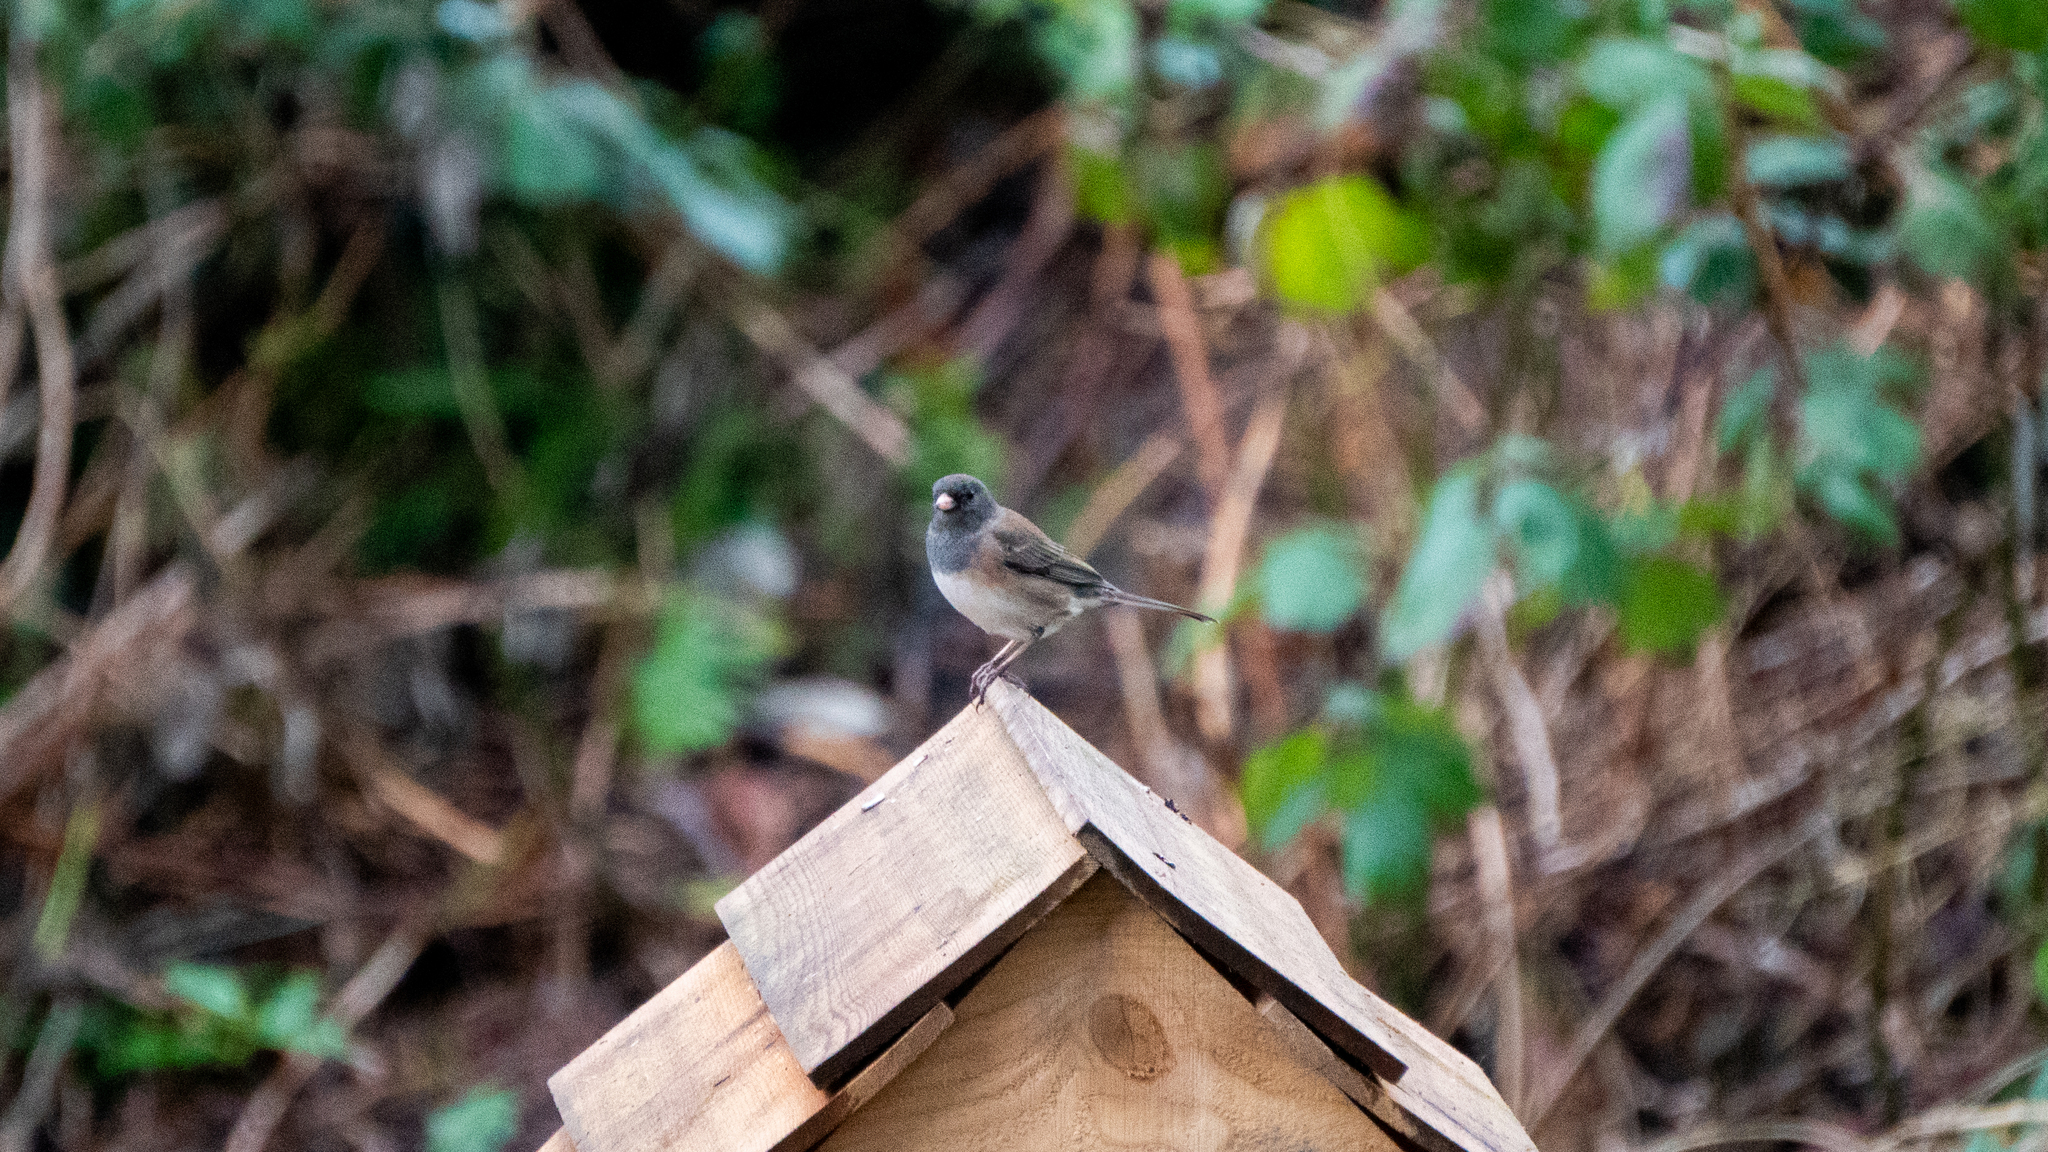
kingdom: Animalia
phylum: Chordata
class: Aves
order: Passeriformes
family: Passerellidae
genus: Junco
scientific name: Junco hyemalis
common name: Dark-eyed junco
